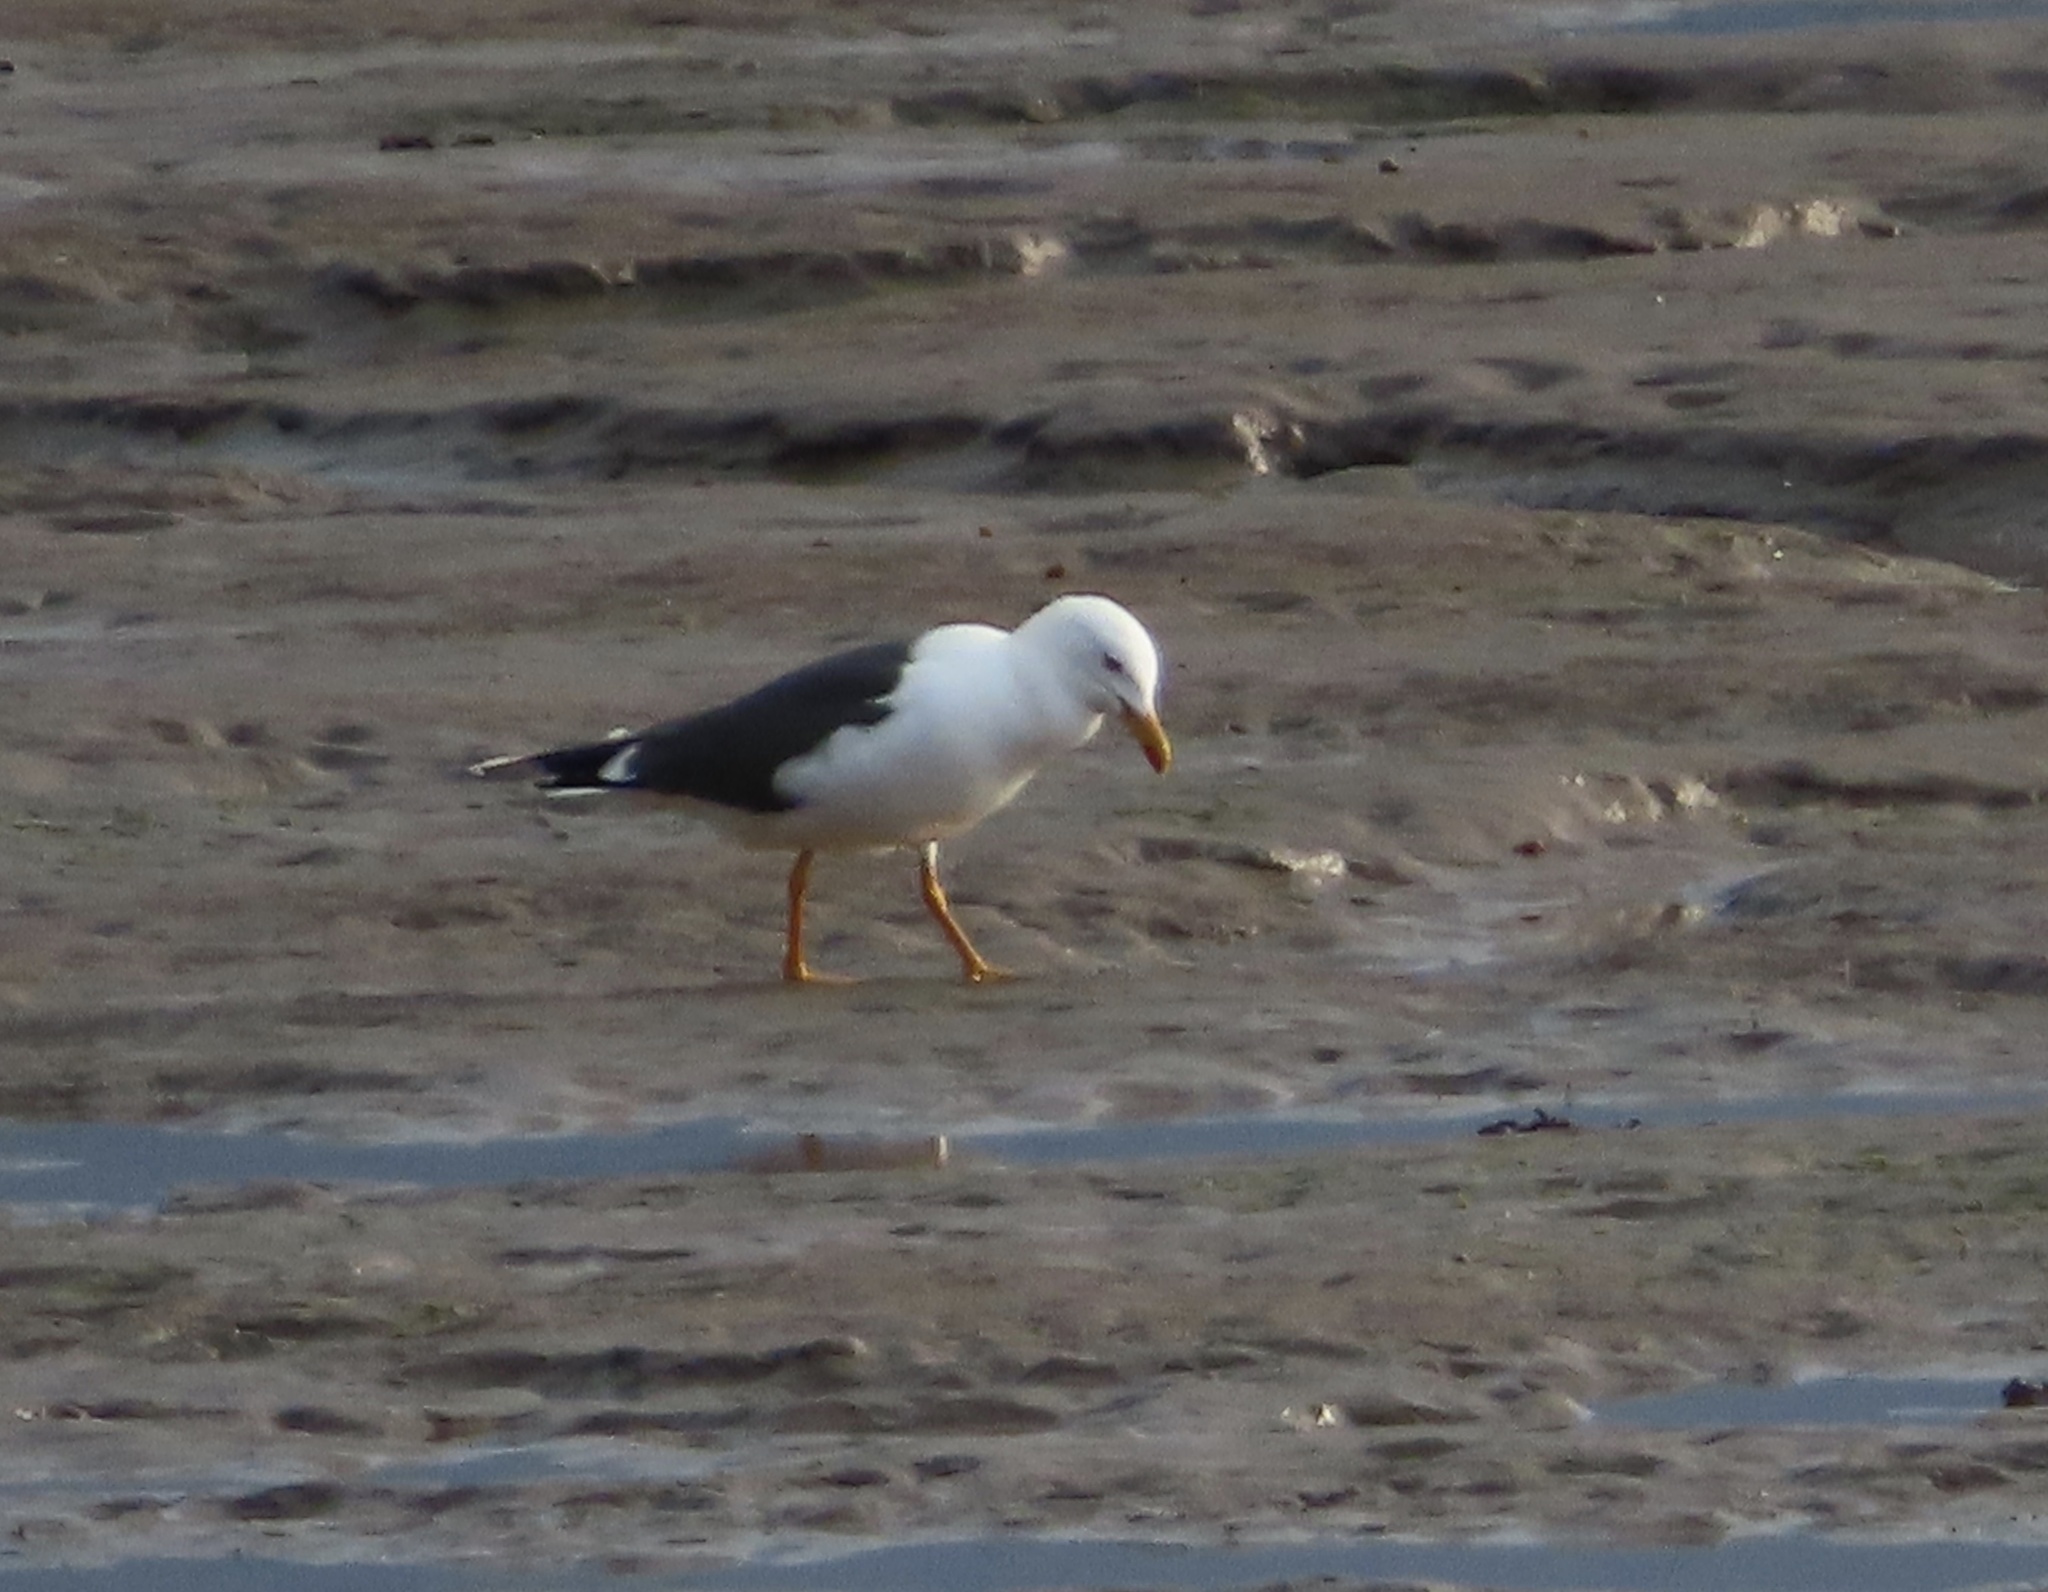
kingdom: Animalia
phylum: Chordata
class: Aves
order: Charadriiformes
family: Laridae
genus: Larus
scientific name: Larus fuscus
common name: Lesser black-backed gull
